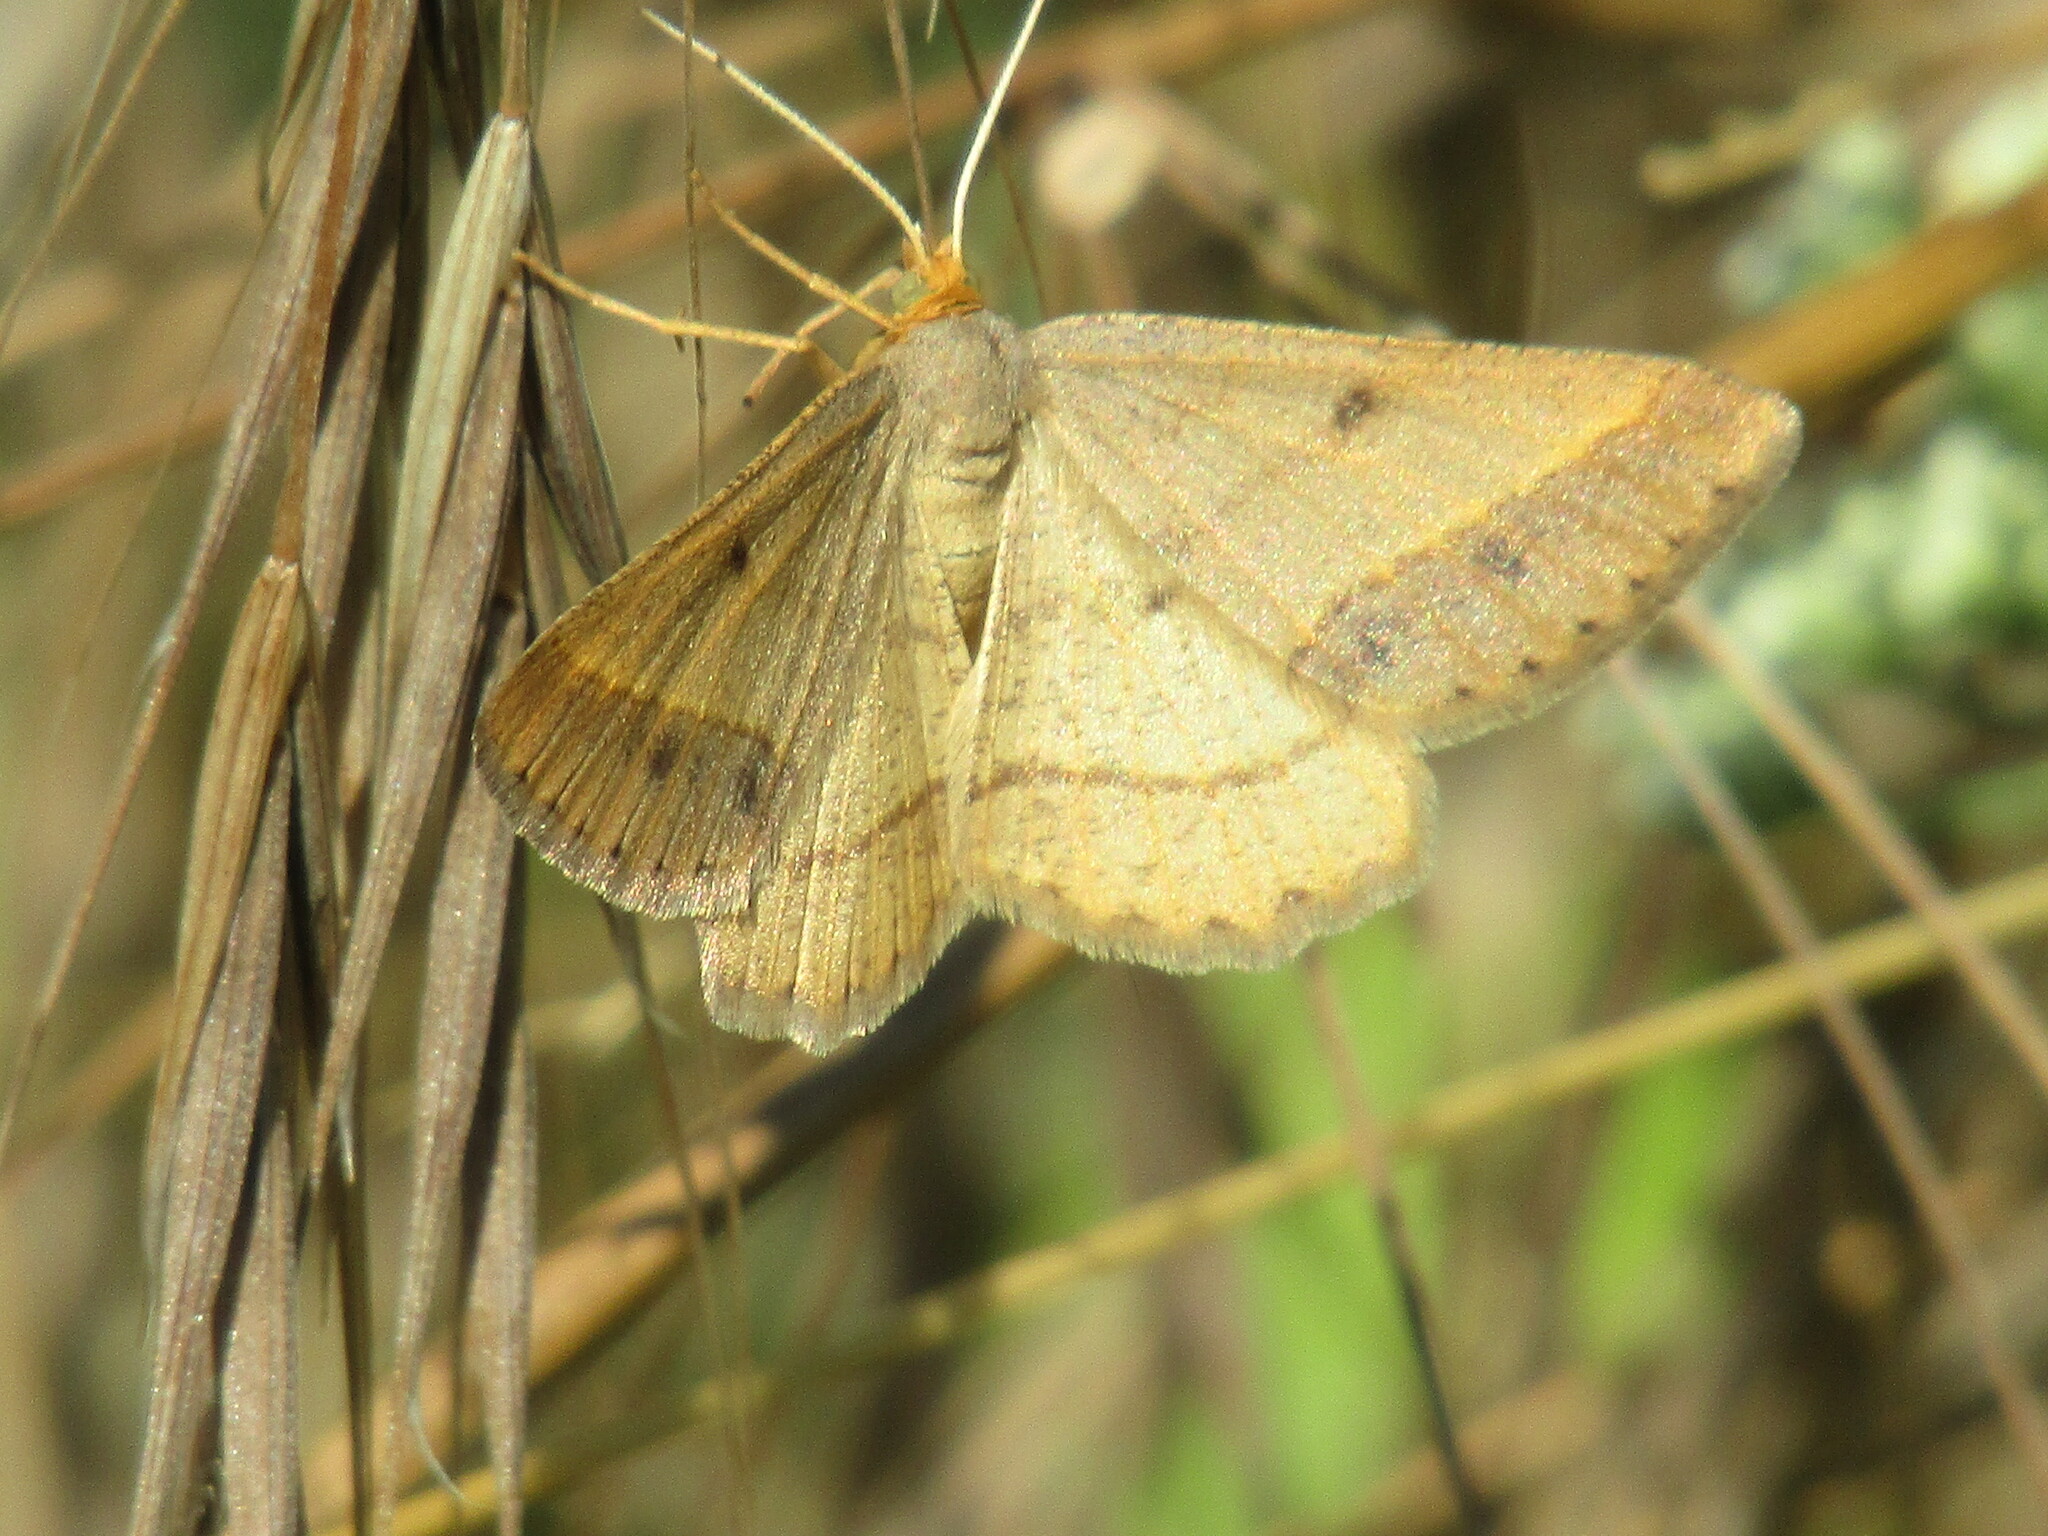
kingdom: Animalia
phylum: Arthropoda
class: Insecta
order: Lepidoptera
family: Geometridae
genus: Tephrina
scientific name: Tephrina arenacearia
